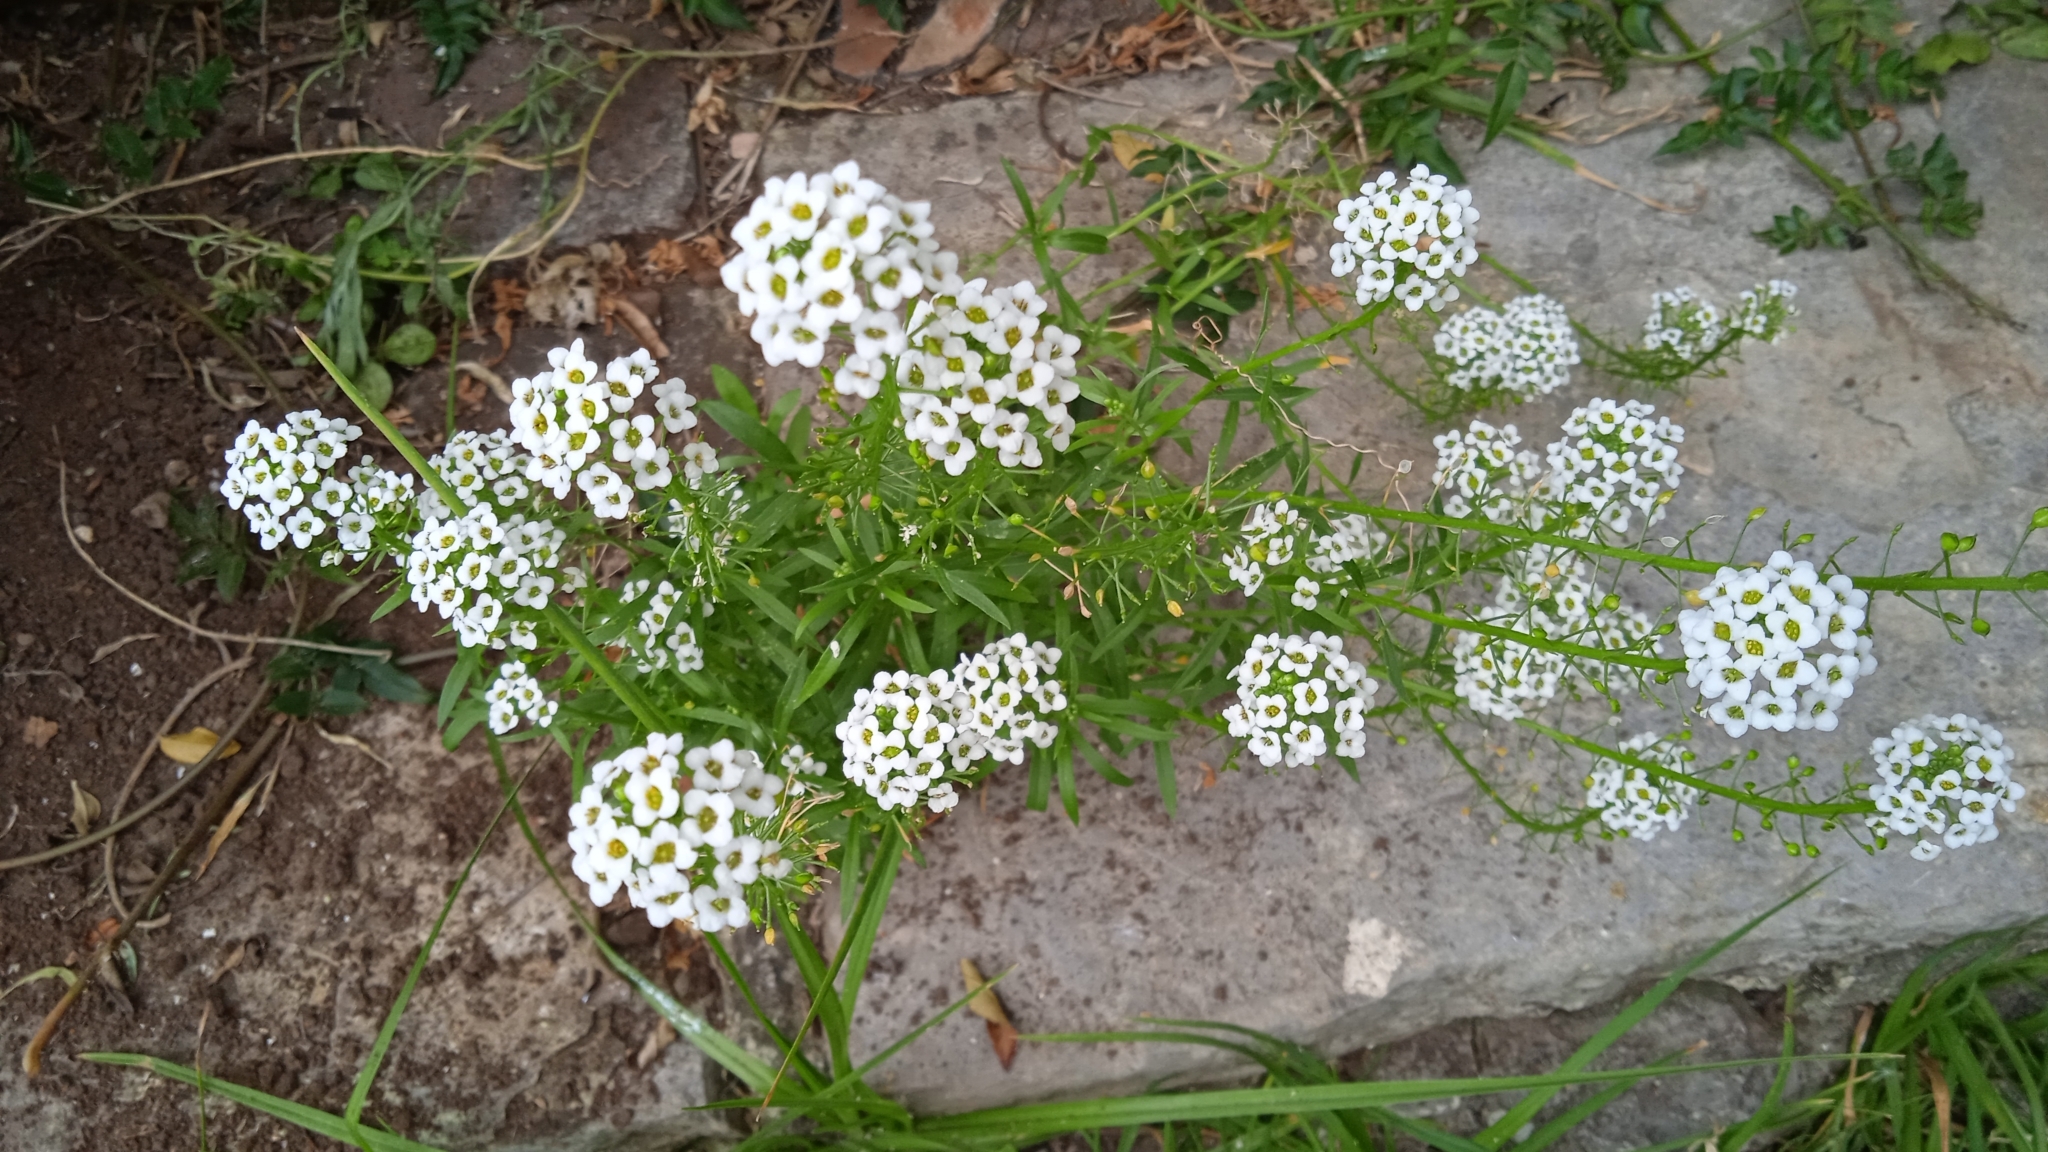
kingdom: Plantae
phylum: Tracheophyta
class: Magnoliopsida
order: Brassicales
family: Brassicaceae
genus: Lobularia
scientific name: Lobularia maritima
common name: Sweet alison
